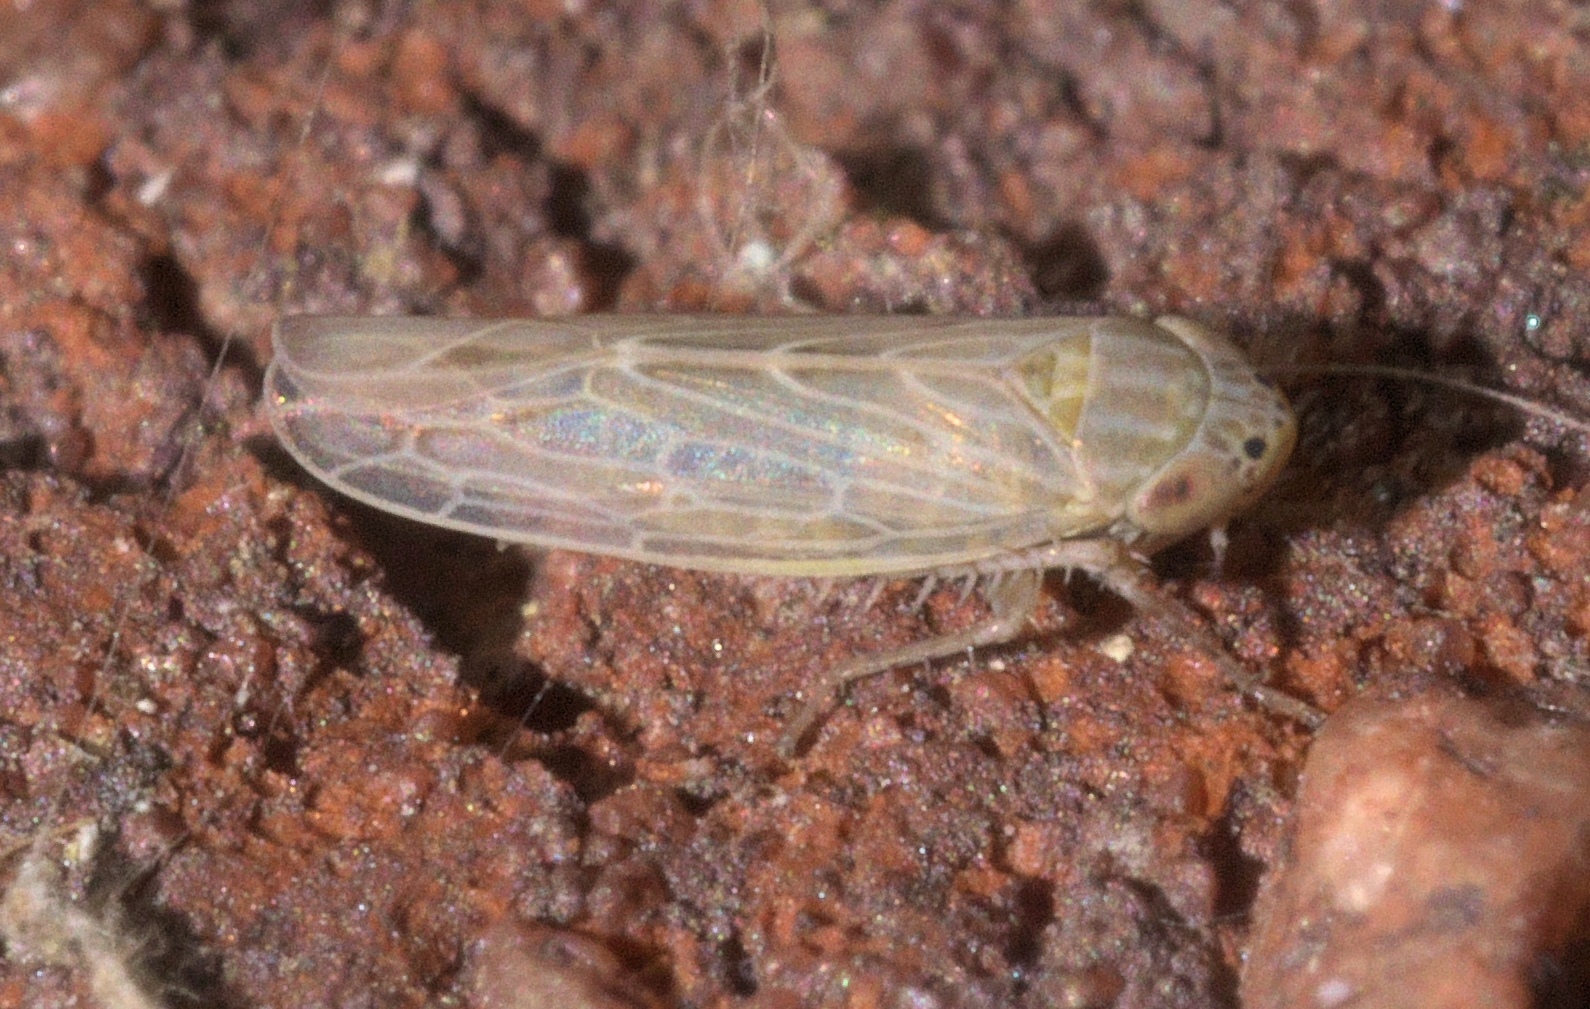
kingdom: Animalia
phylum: Arthropoda
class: Insecta
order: Hemiptera
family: Cicadellidae
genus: Graminella
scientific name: Graminella sonora
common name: Lesser lawn leafhopper
